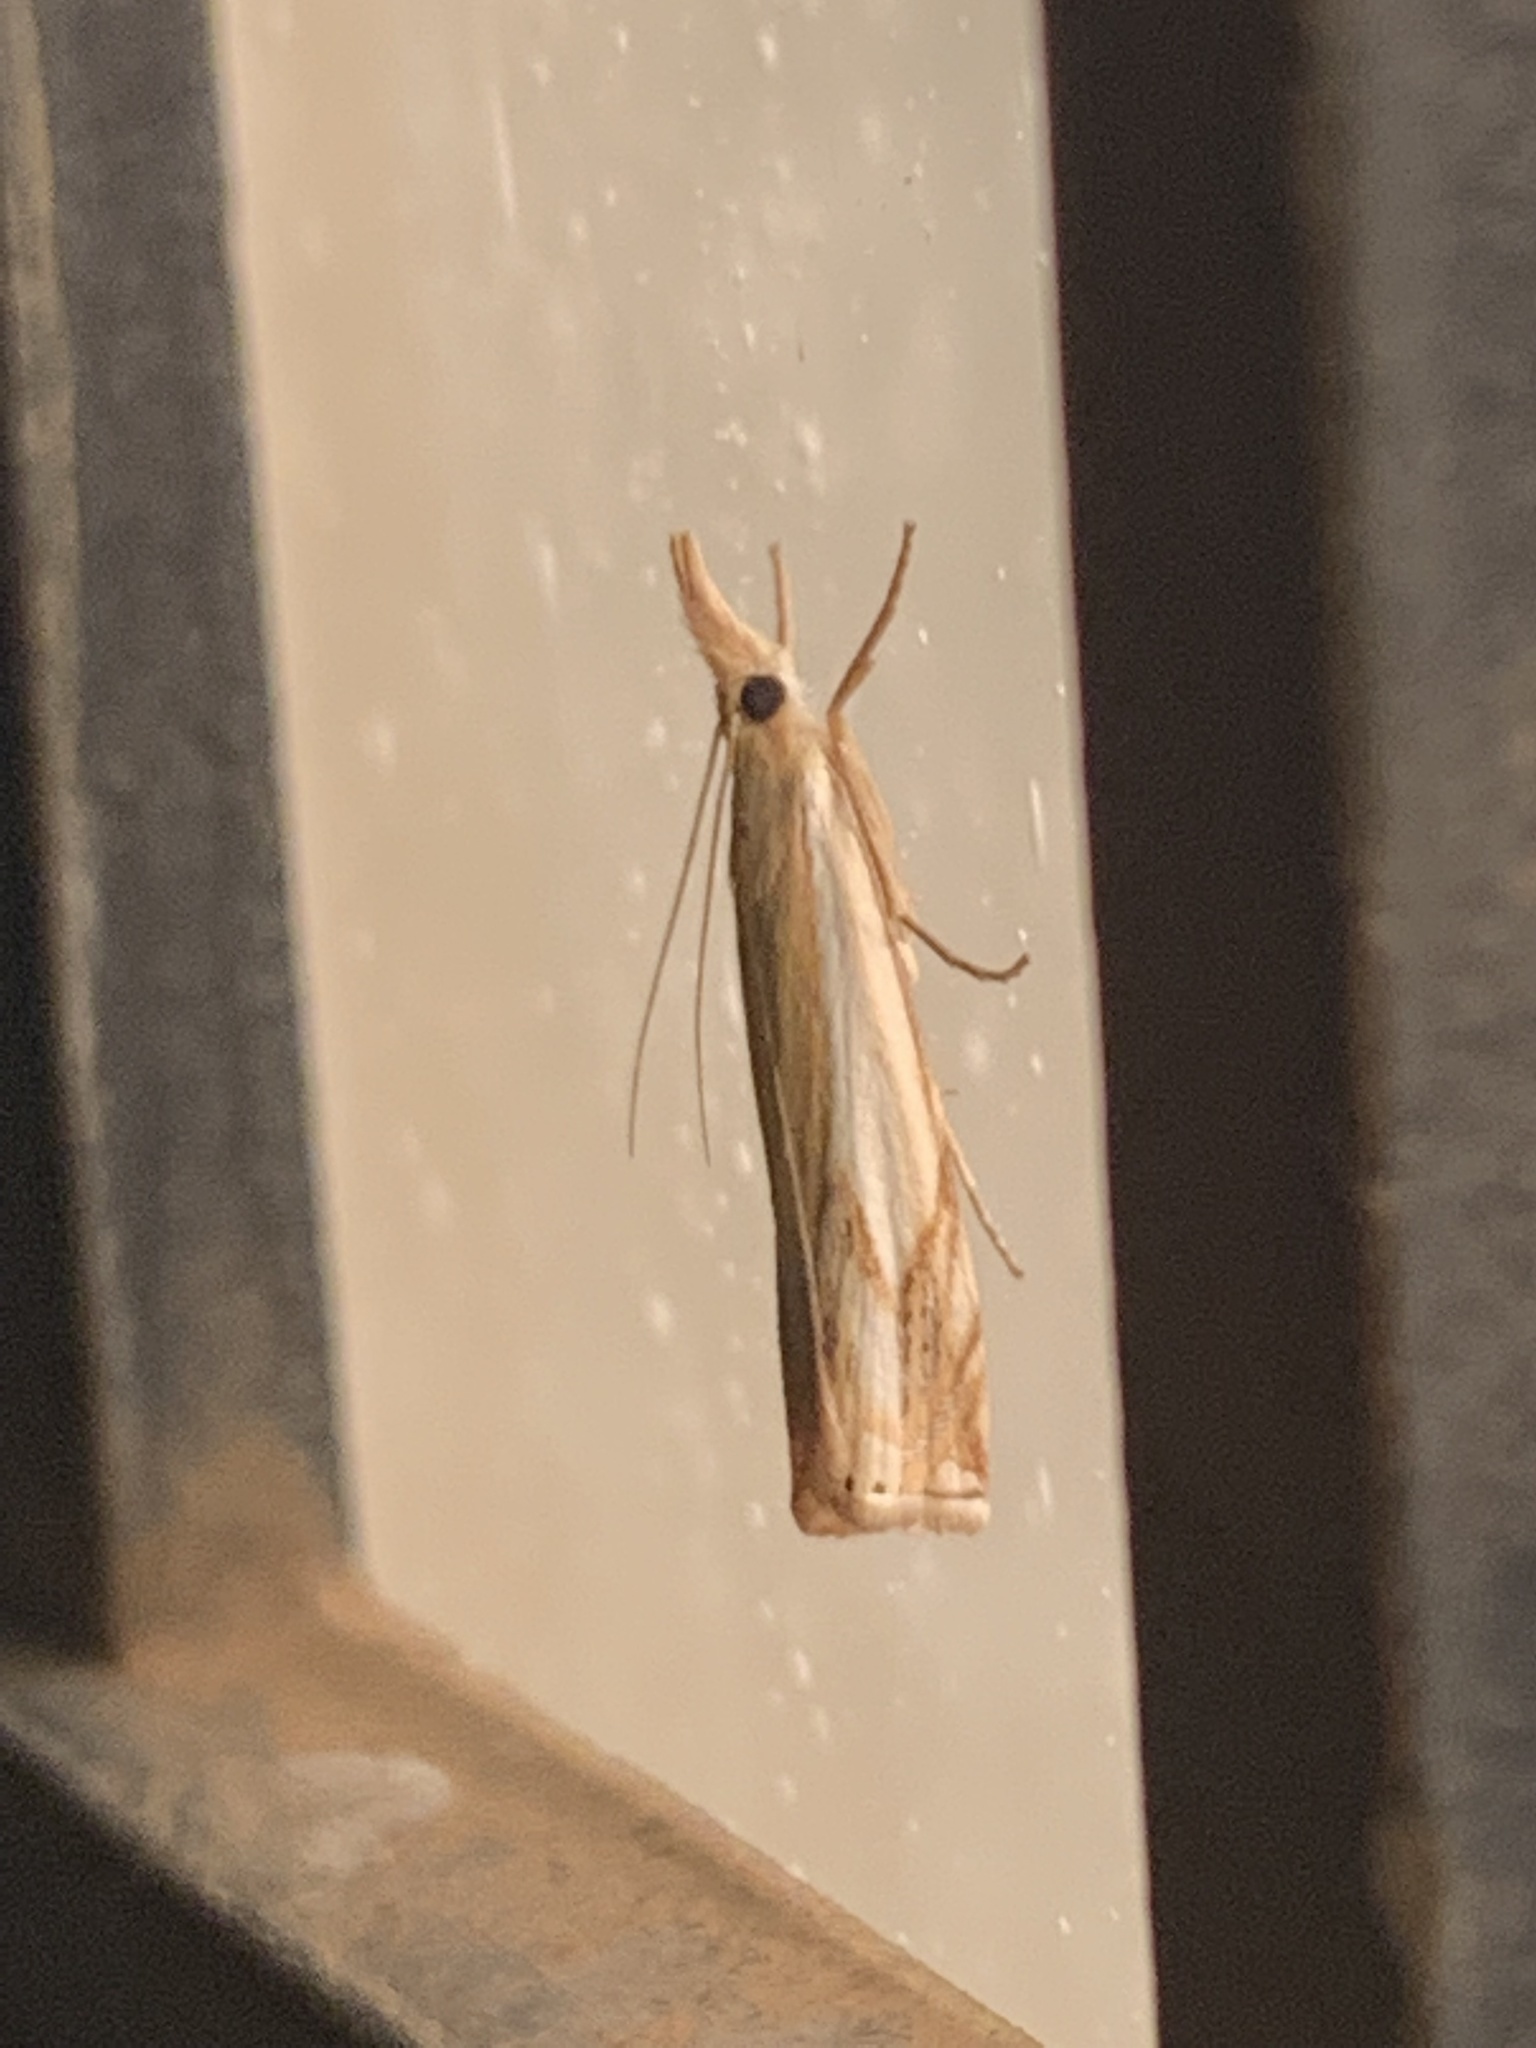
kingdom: Animalia
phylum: Arthropoda
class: Insecta
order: Lepidoptera
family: Crambidae
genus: Crambus
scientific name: Crambus agitatellus
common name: Double-banded grass-veneer
